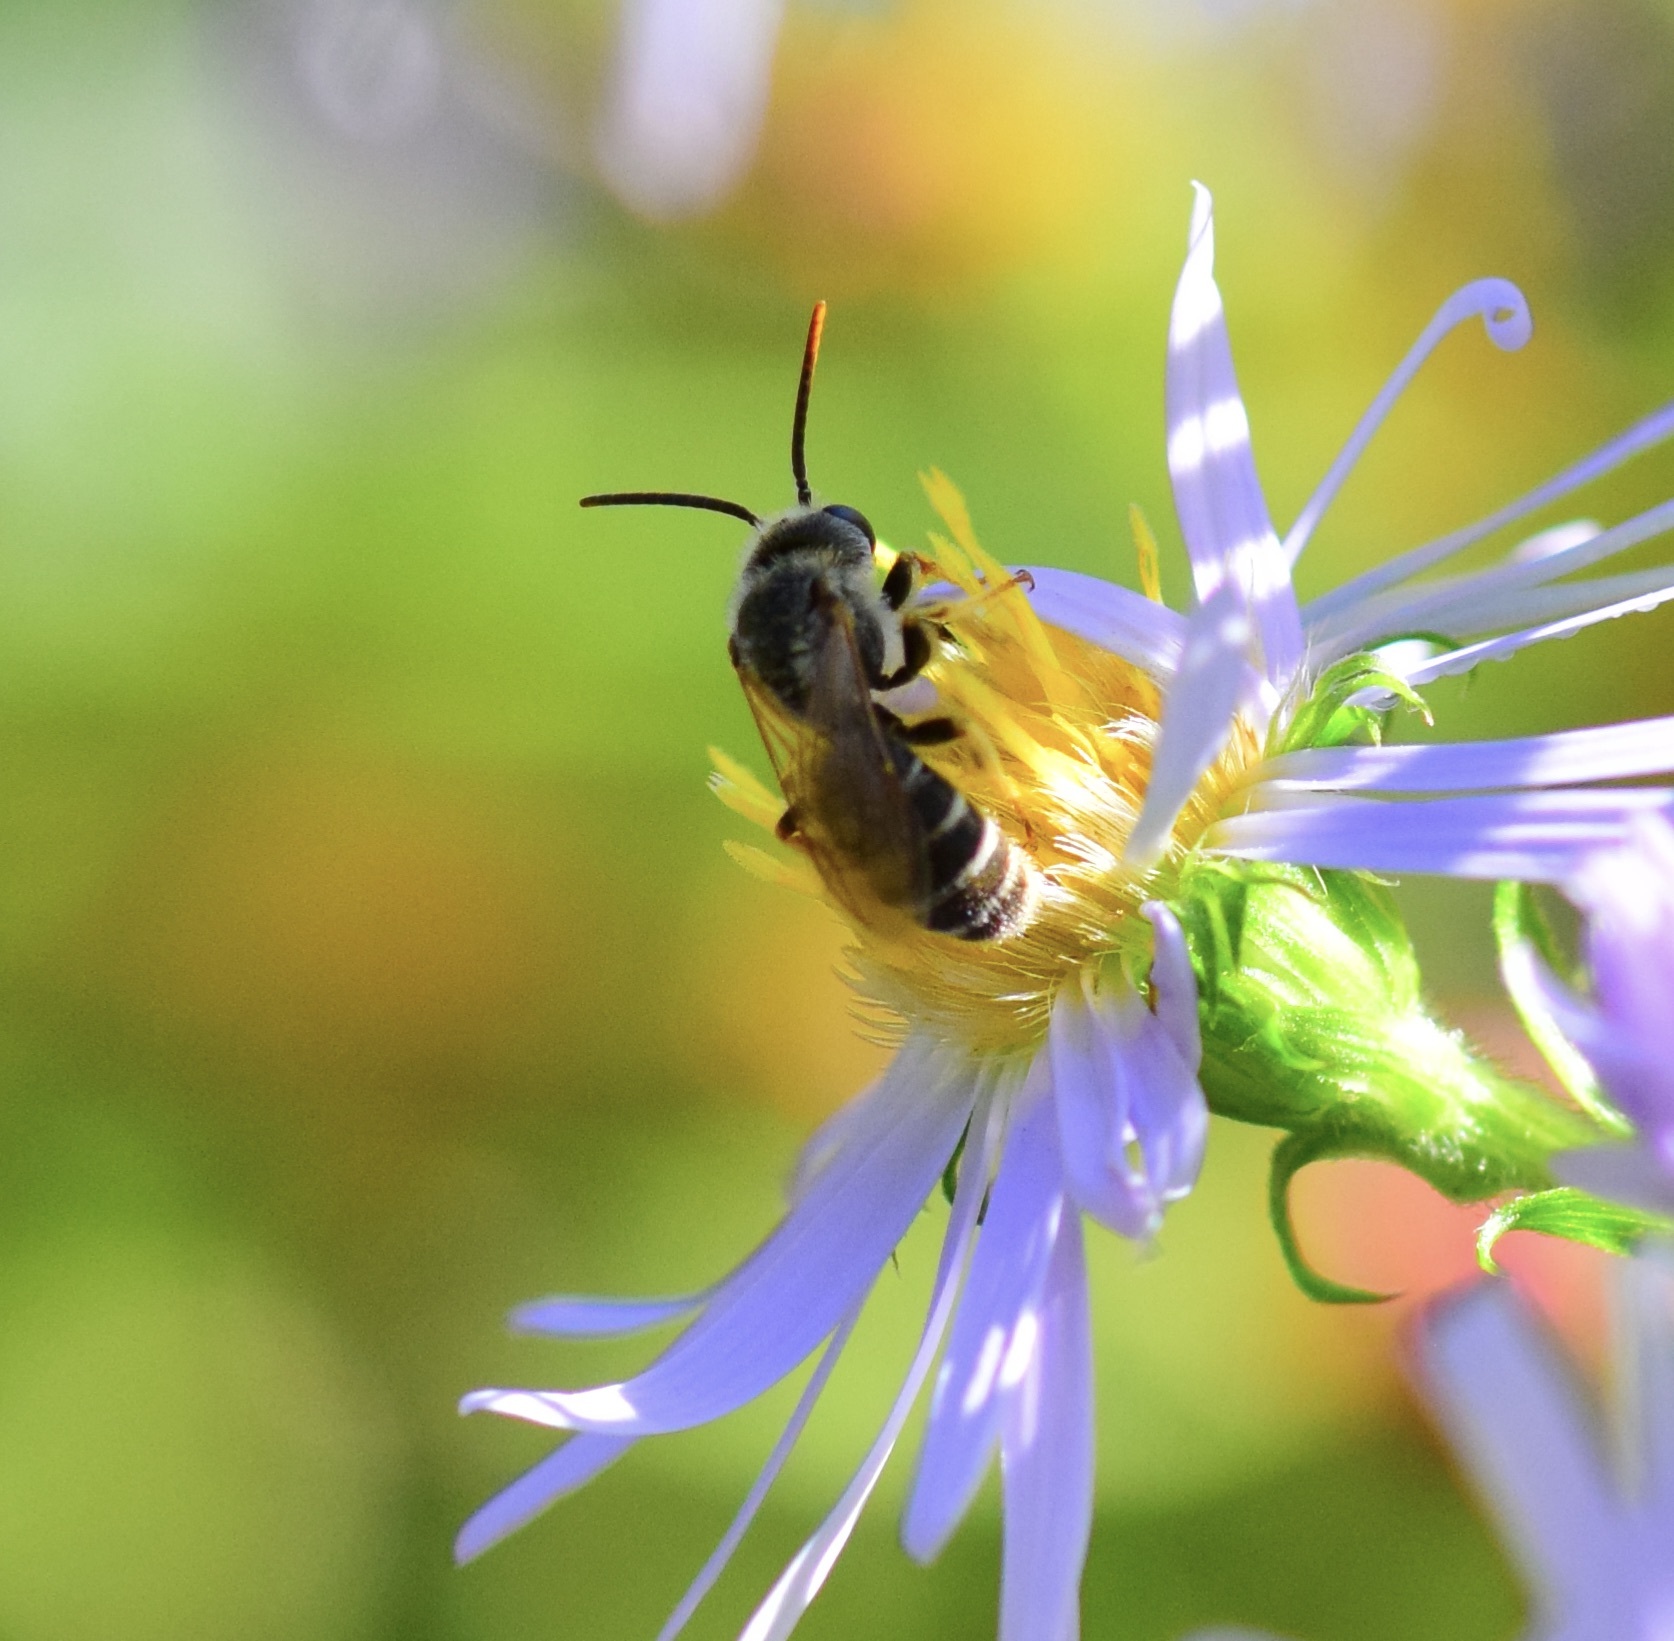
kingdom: Animalia
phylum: Arthropoda
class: Insecta
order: Hymenoptera
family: Halictidae
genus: Halictus
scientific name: Halictus ligatus
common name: Ligated furrow bee
